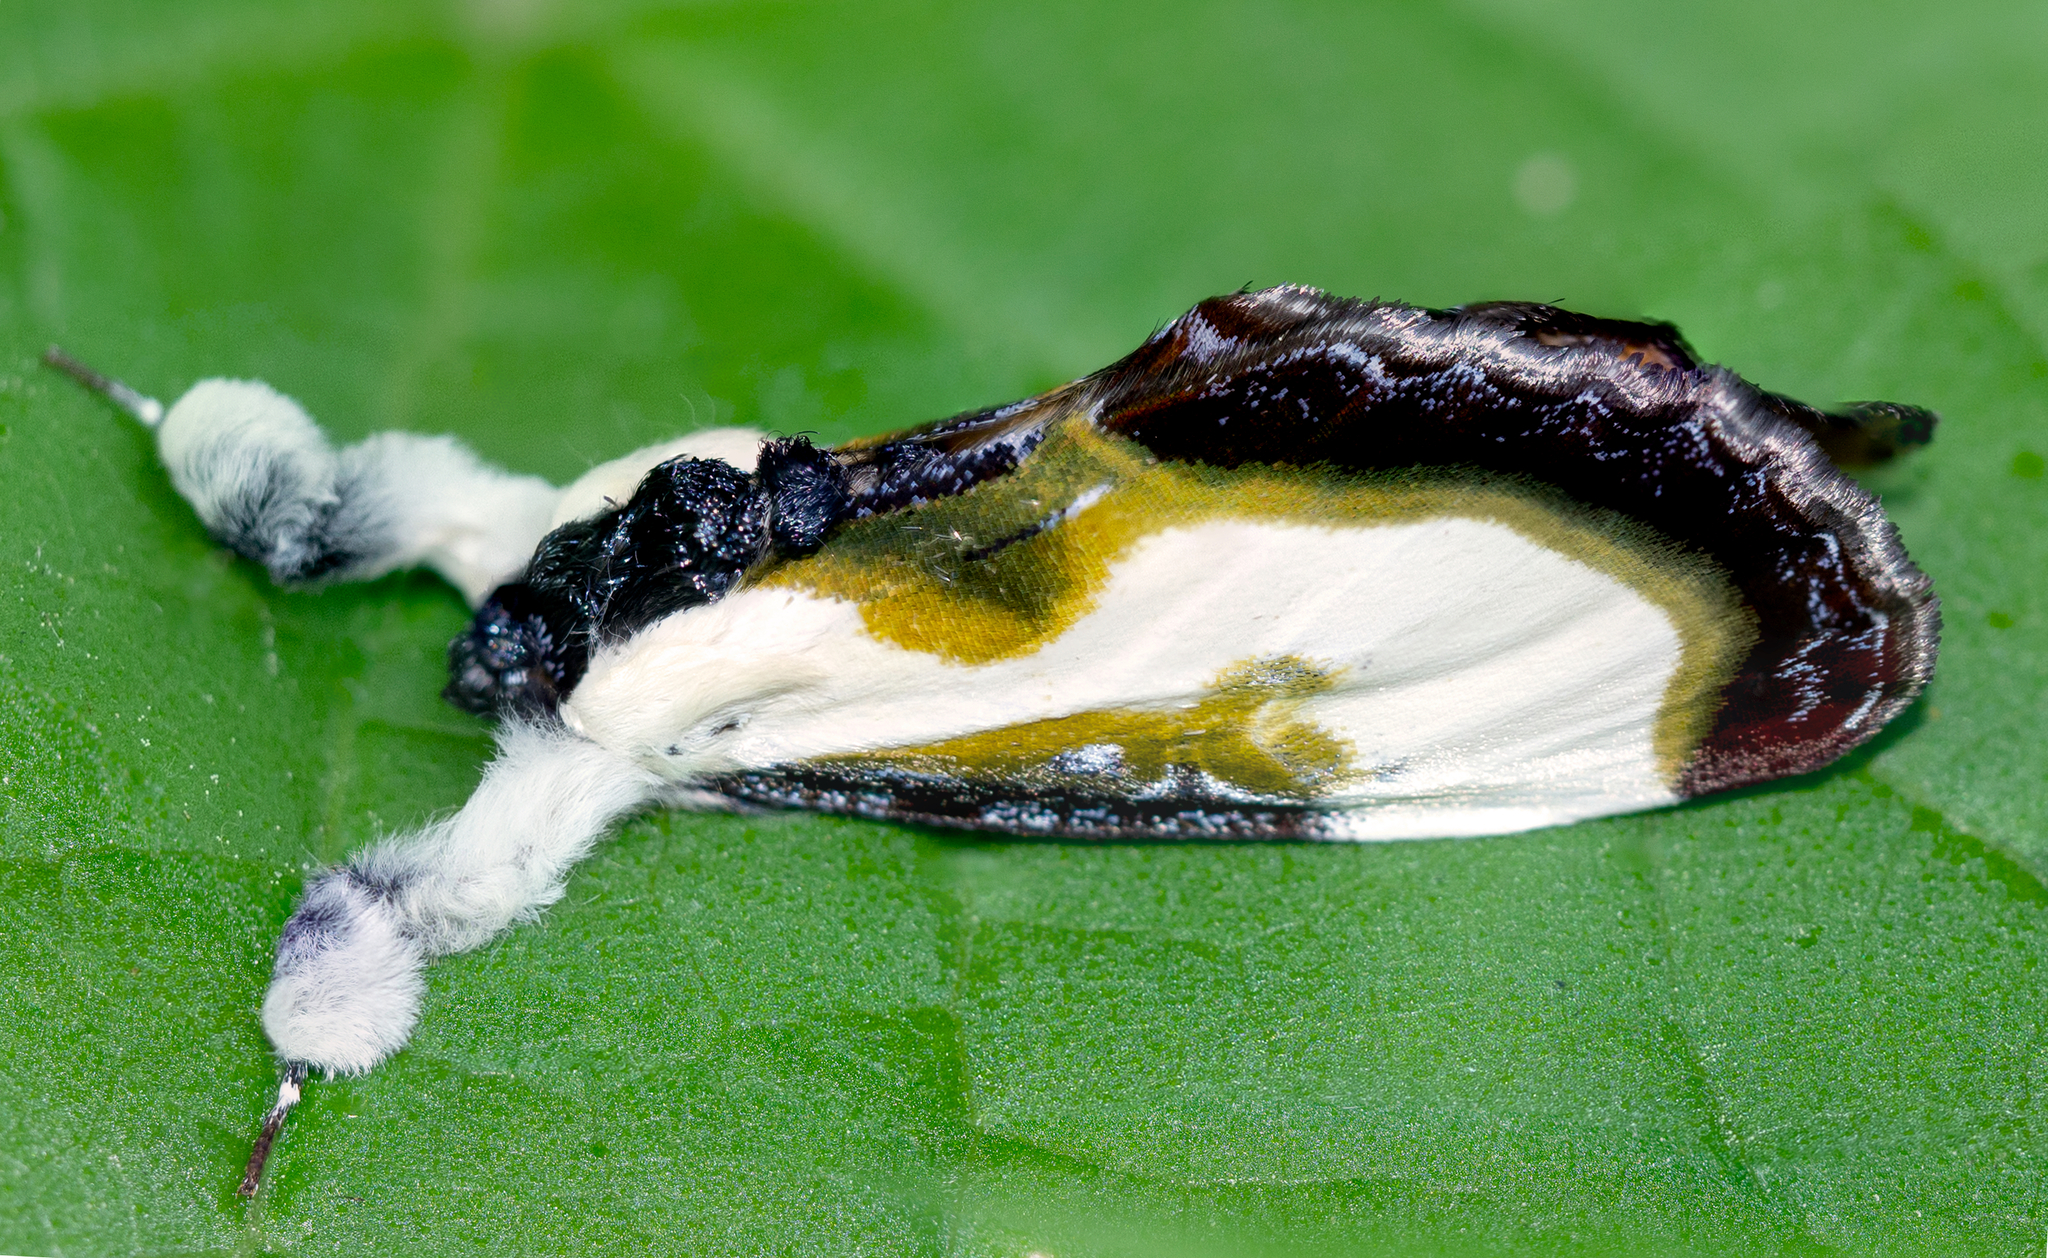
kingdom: Animalia
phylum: Arthropoda
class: Insecta
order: Lepidoptera
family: Noctuidae
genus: Eudryas
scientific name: Eudryas grata
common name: Beautiful wood-nymph
